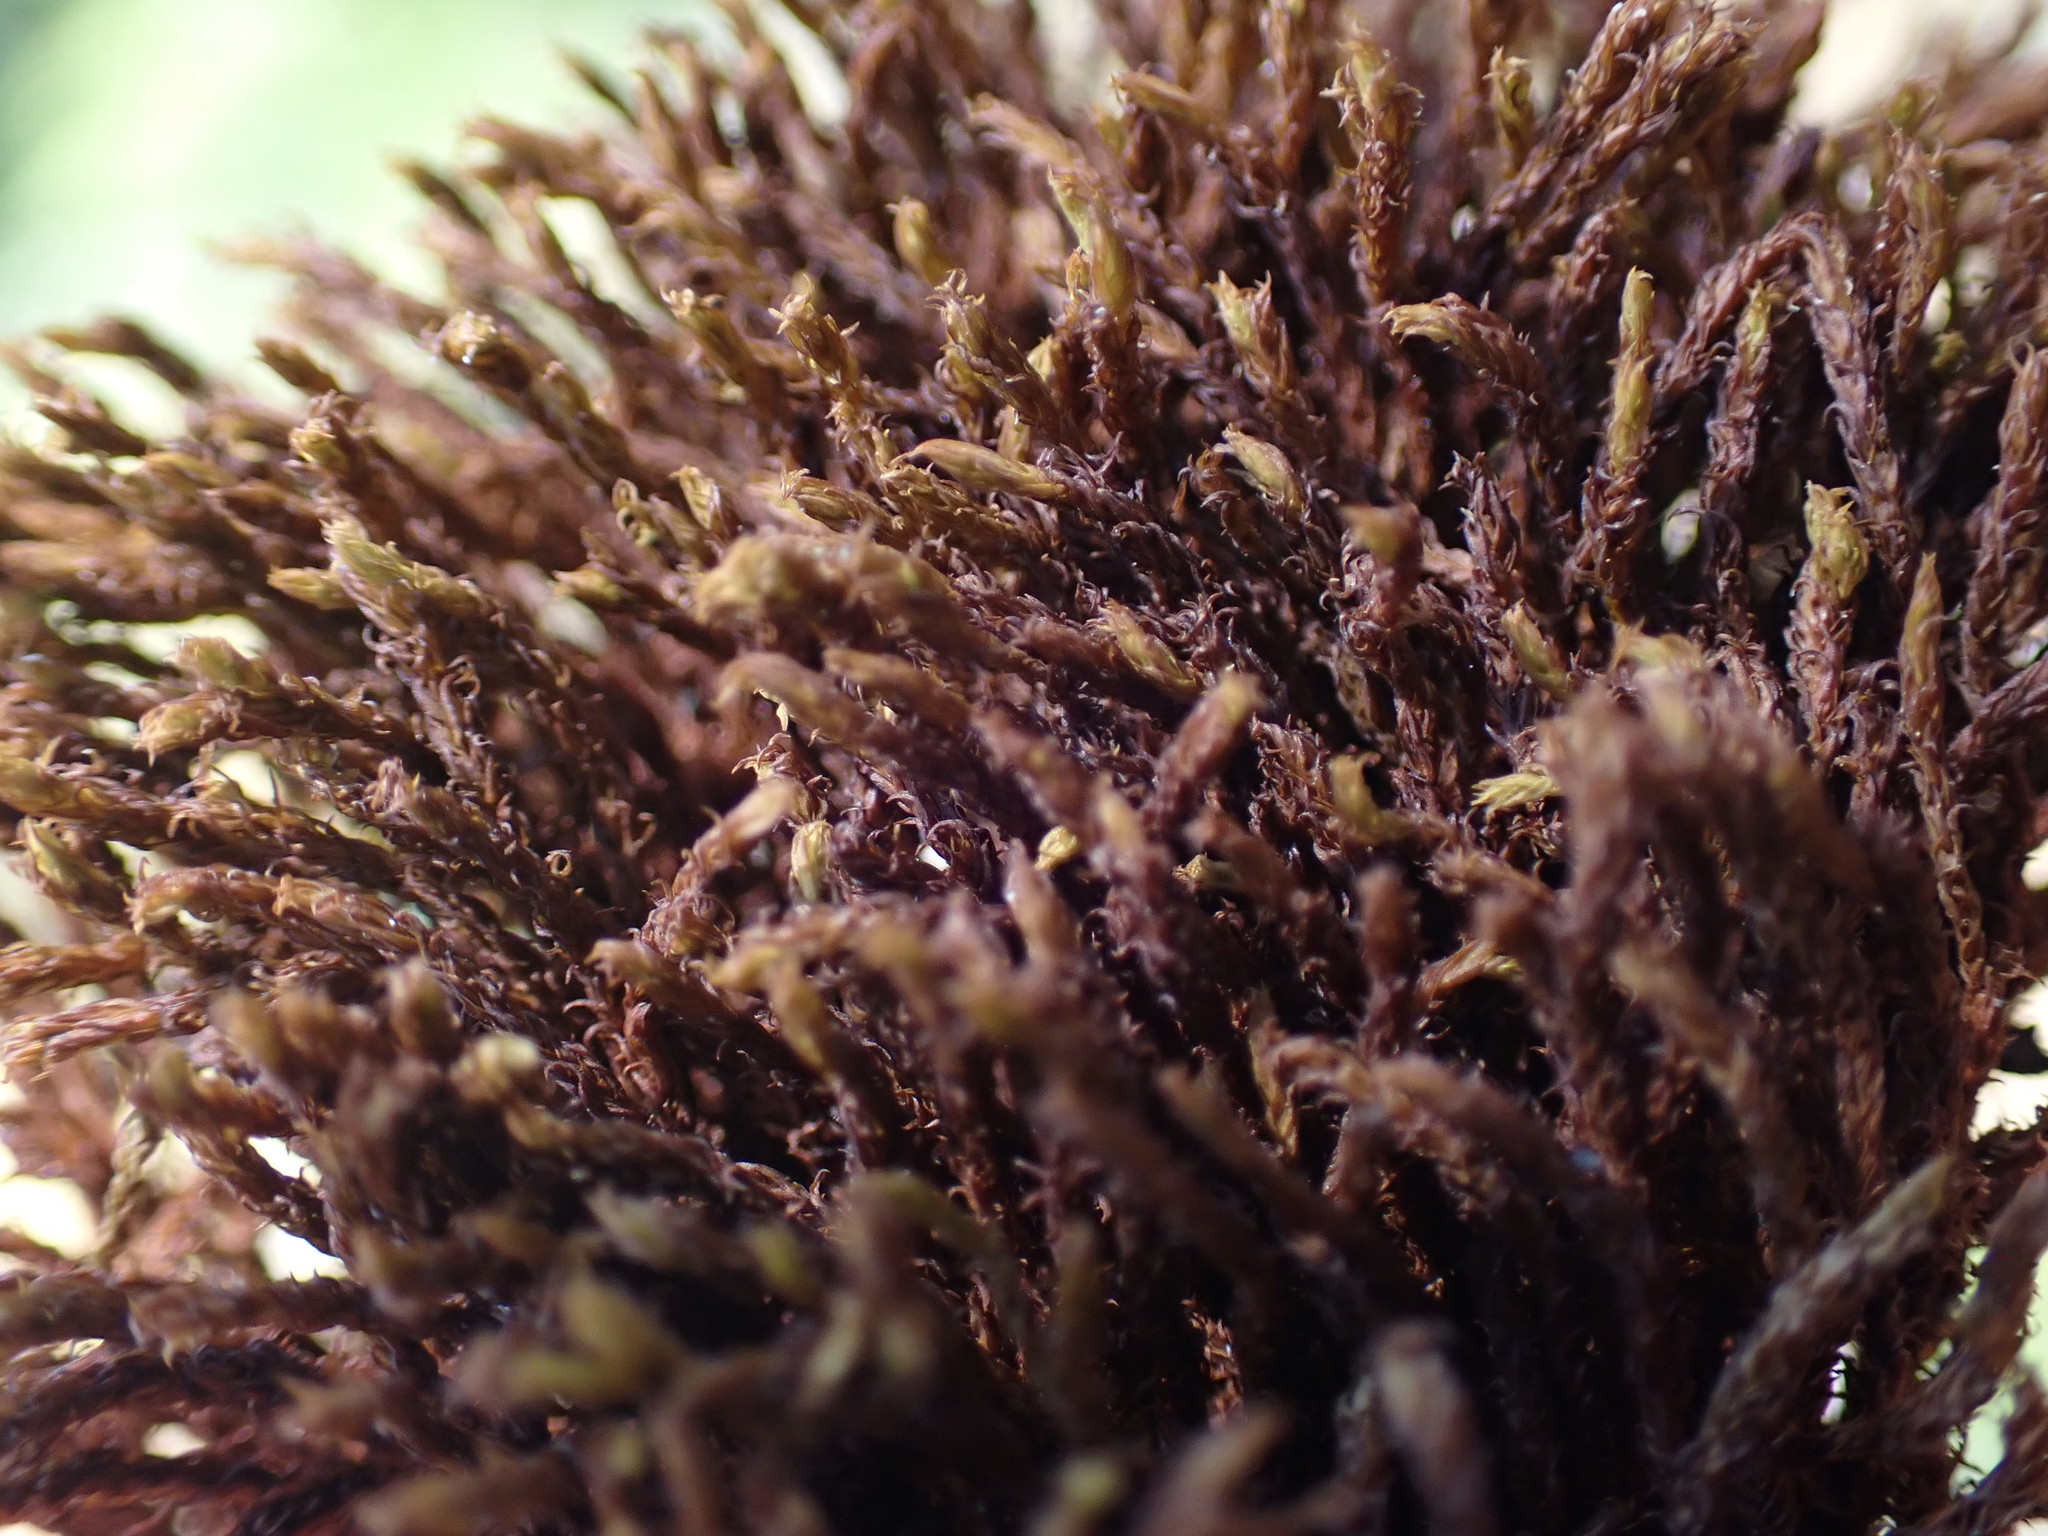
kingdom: Plantae
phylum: Bryophyta
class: Bryopsida
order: Pottiales
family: Pottiaceae
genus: Geheebia
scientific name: Geheebia ferruginea
